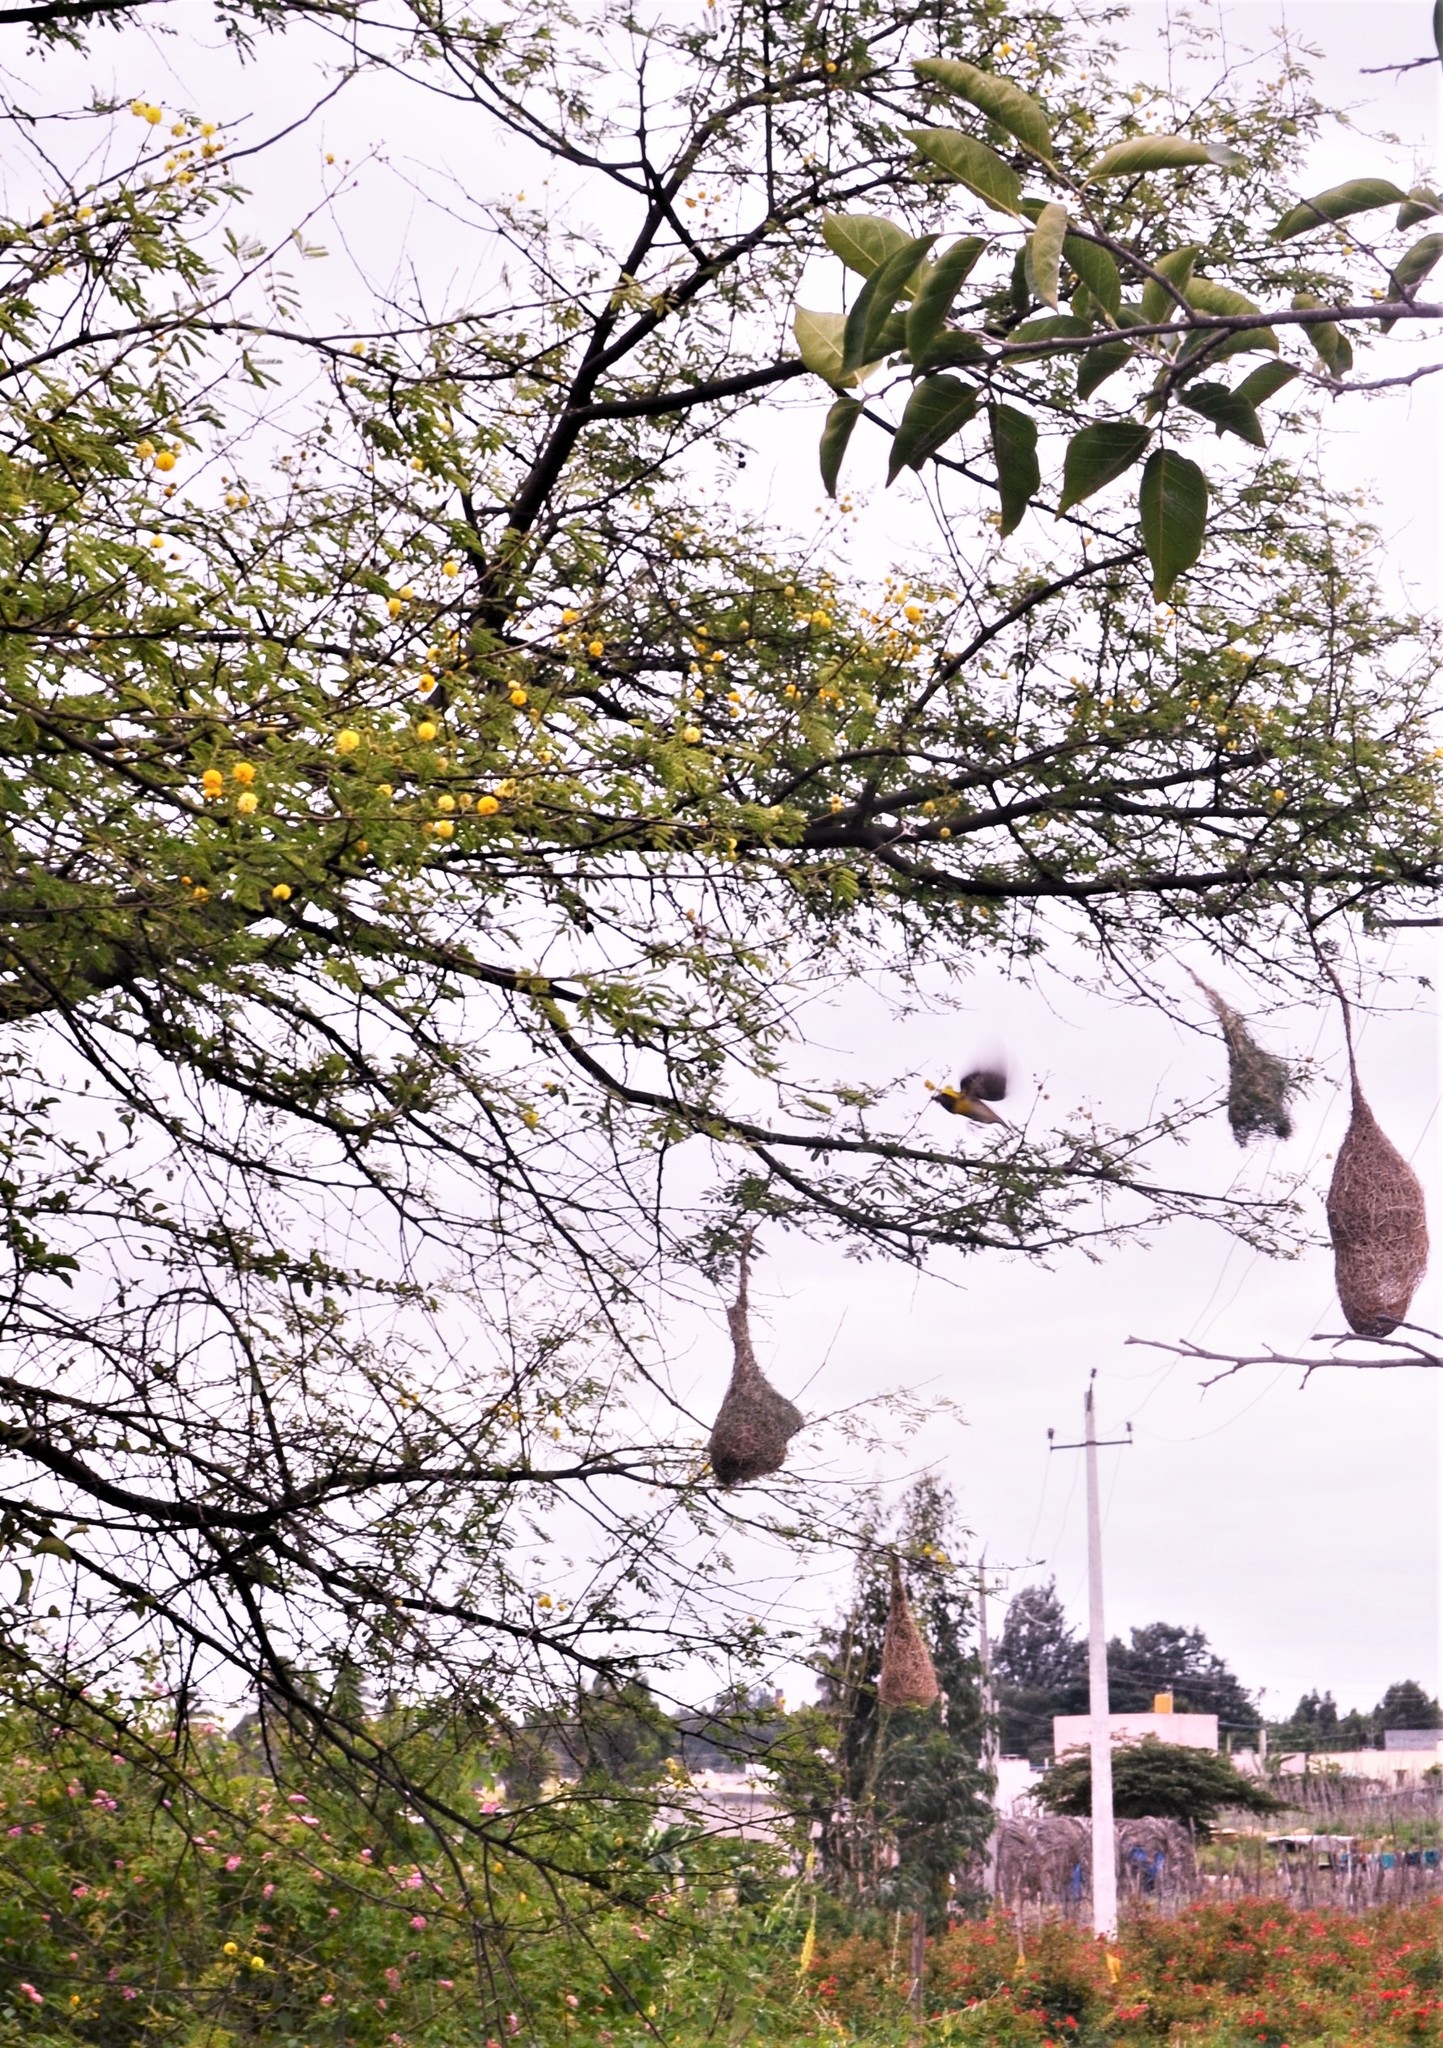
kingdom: Animalia
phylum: Chordata
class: Aves
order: Passeriformes
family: Ploceidae
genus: Ploceus
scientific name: Ploceus philippinus
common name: Baya weaver
